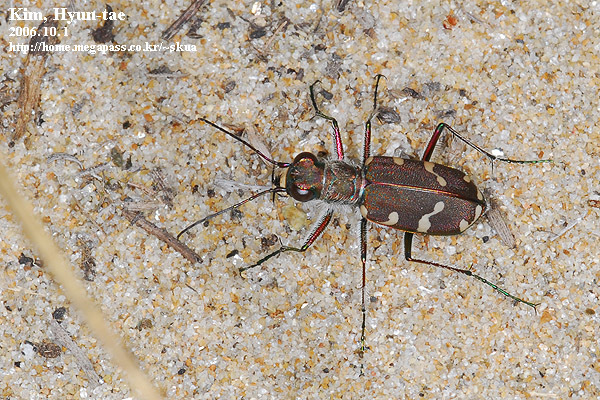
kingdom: Animalia
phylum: Arthropoda
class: Insecta
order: Coleoptera
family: Carabidae
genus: Cicindela
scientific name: Cicindela transbaicalica
